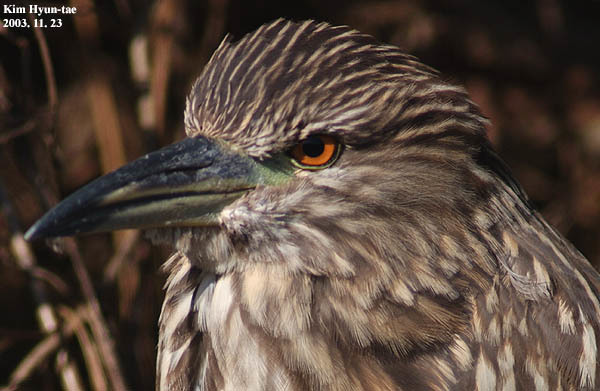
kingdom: Animalia
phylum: Chordata
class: Aves
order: Pelecaniformes
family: Ardeidae
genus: Nycticorax
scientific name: Nycticorax nycticorax
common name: Black-crowned night heron
